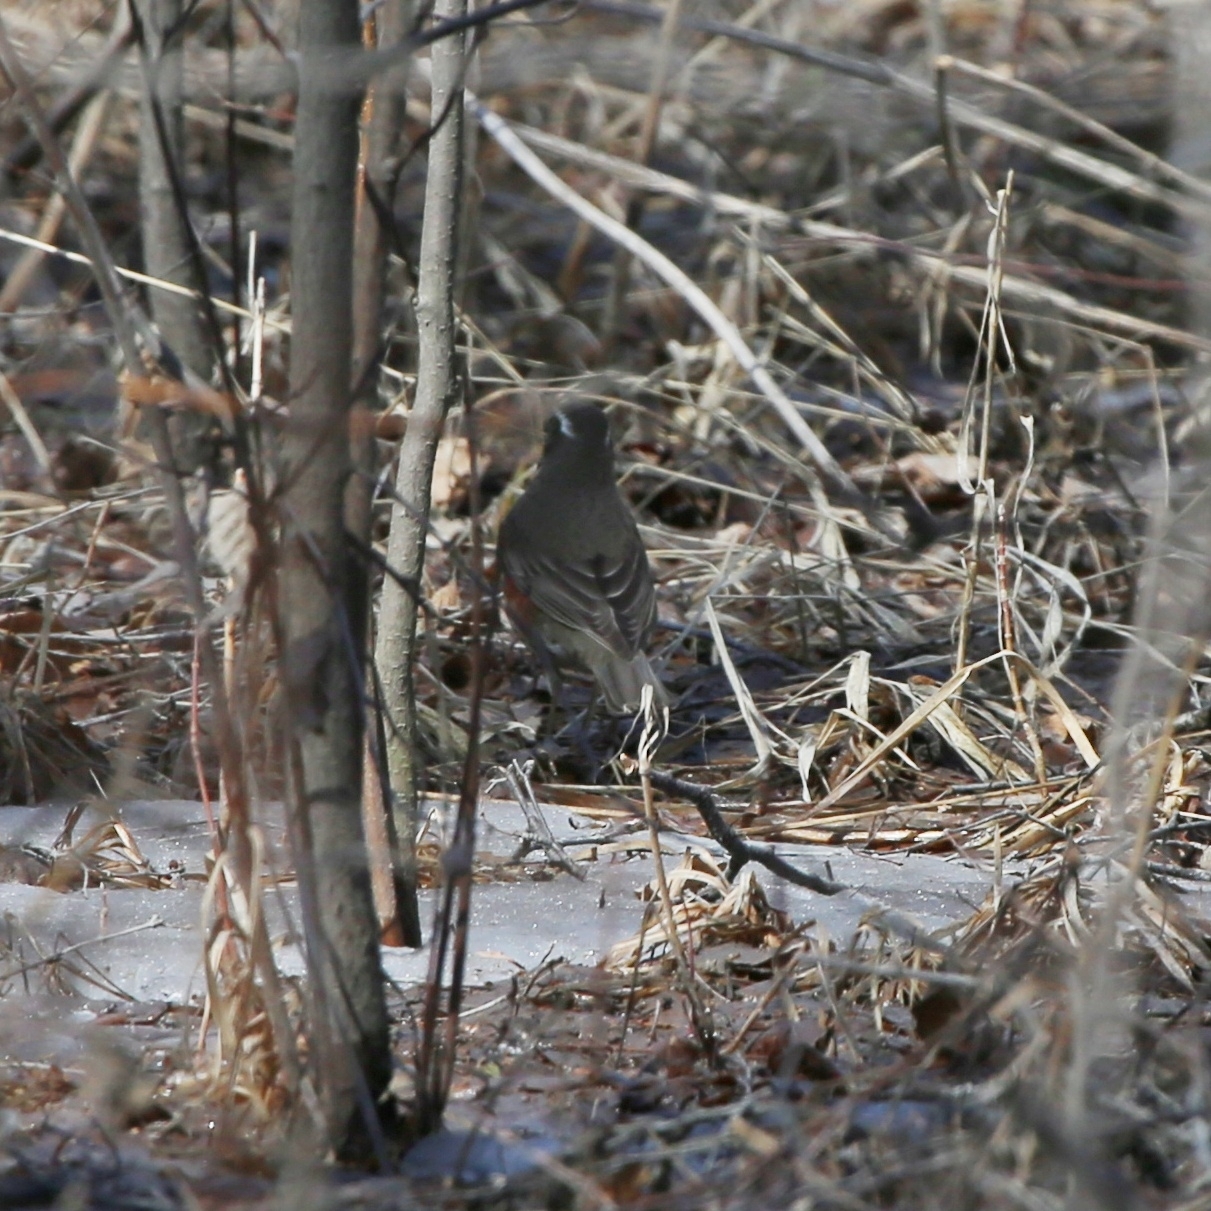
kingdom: Animalia
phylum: Chordata
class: Aves
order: Passeriformes
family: Turdidae
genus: Turdus
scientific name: Turdus iliacus
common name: Redwing
